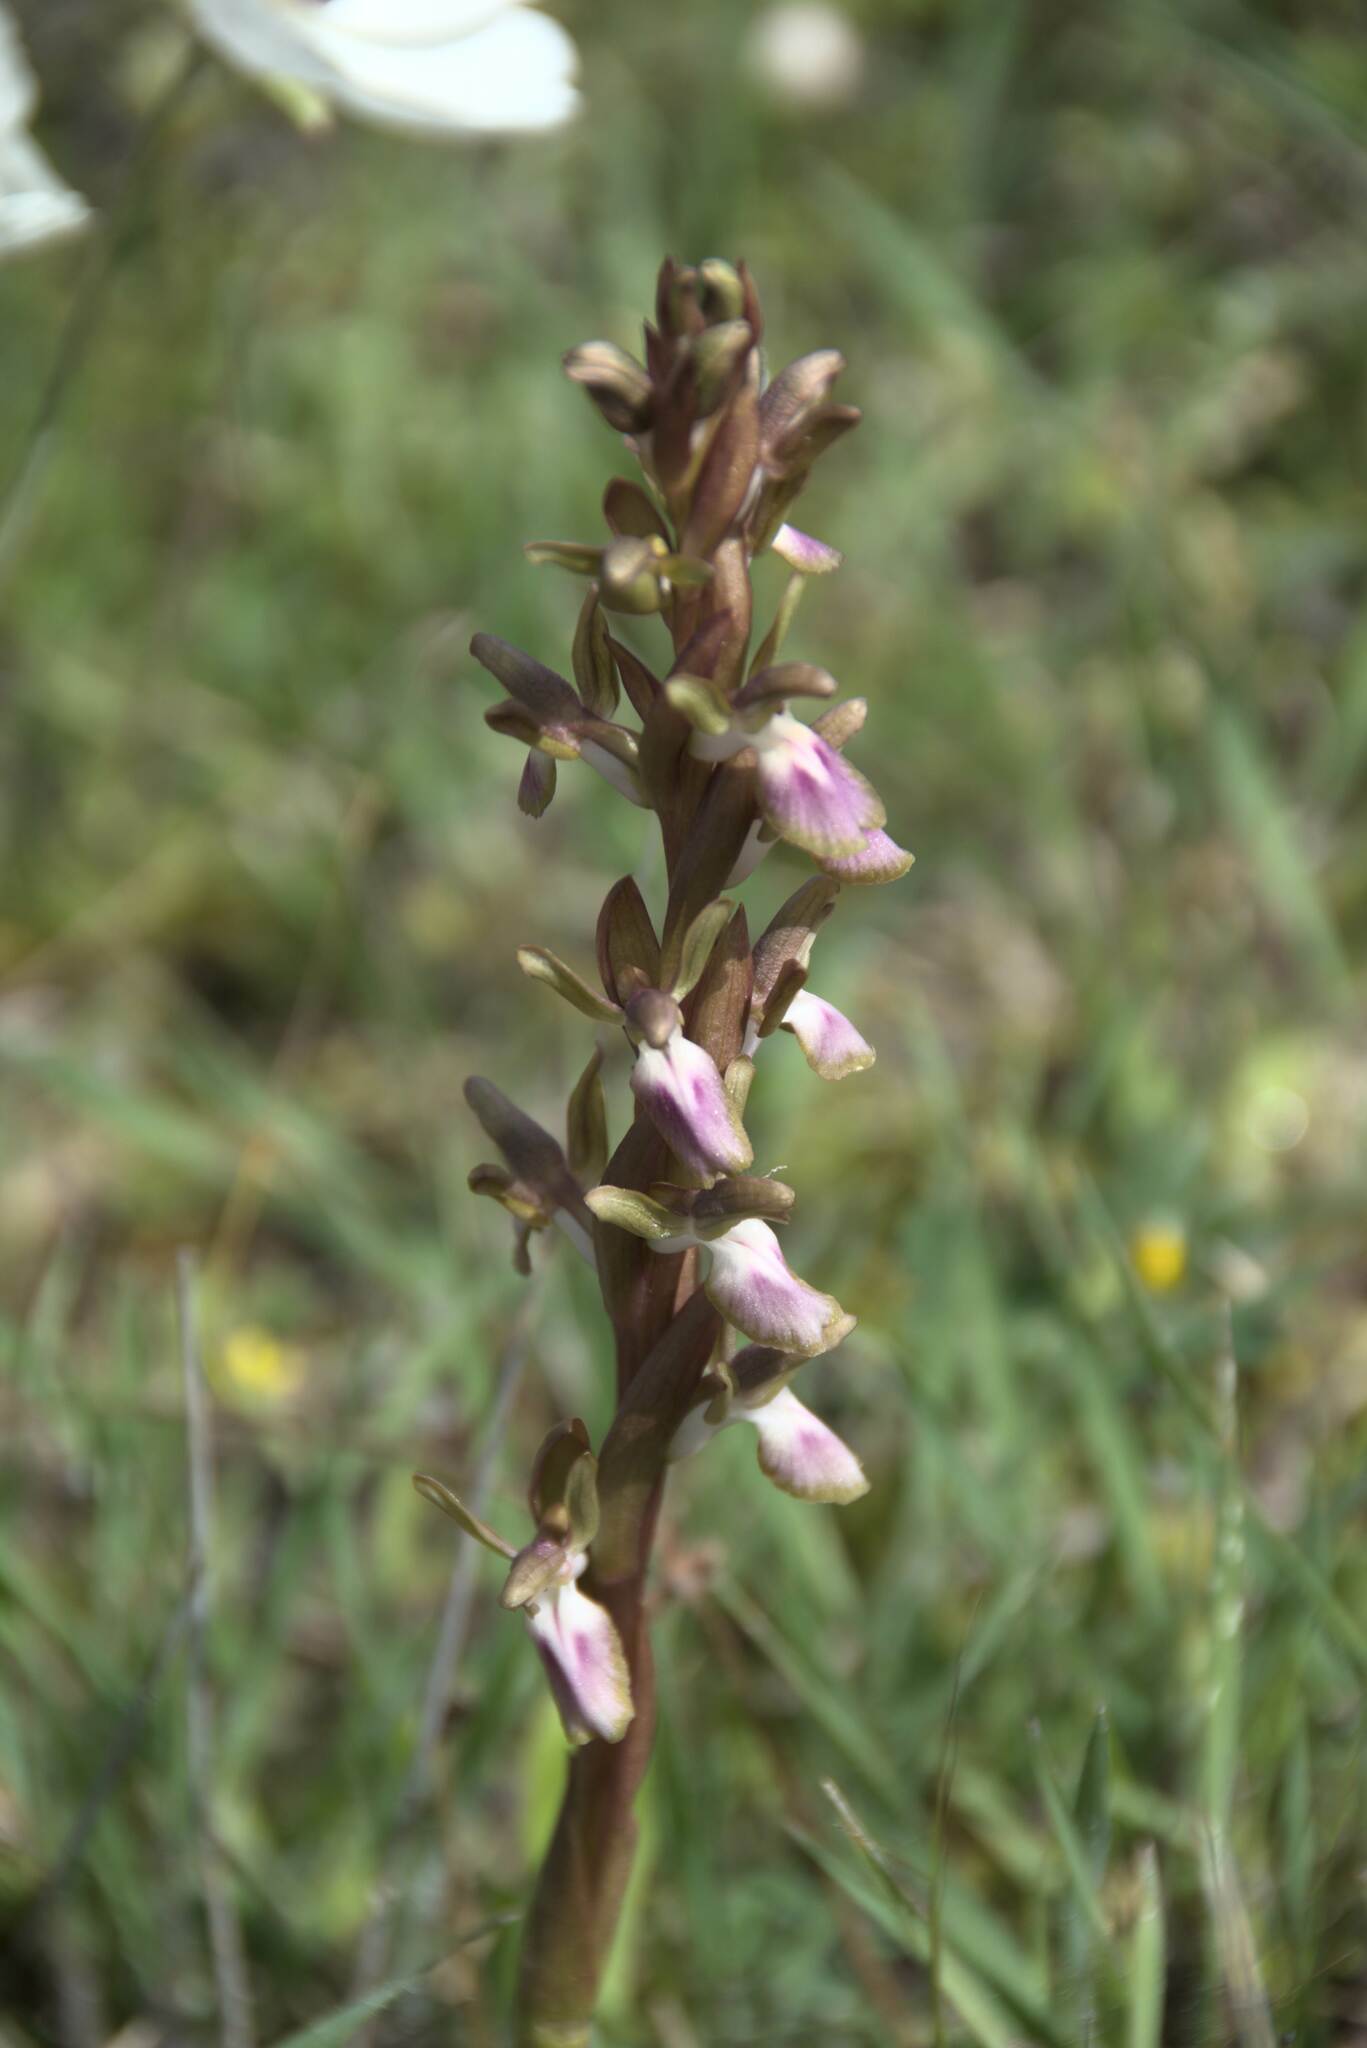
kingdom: Plantae
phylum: Tracheophyta
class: Liliopsida
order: Asparagales
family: Orchidaceae
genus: Anacamptis
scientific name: Anacamptis collina
